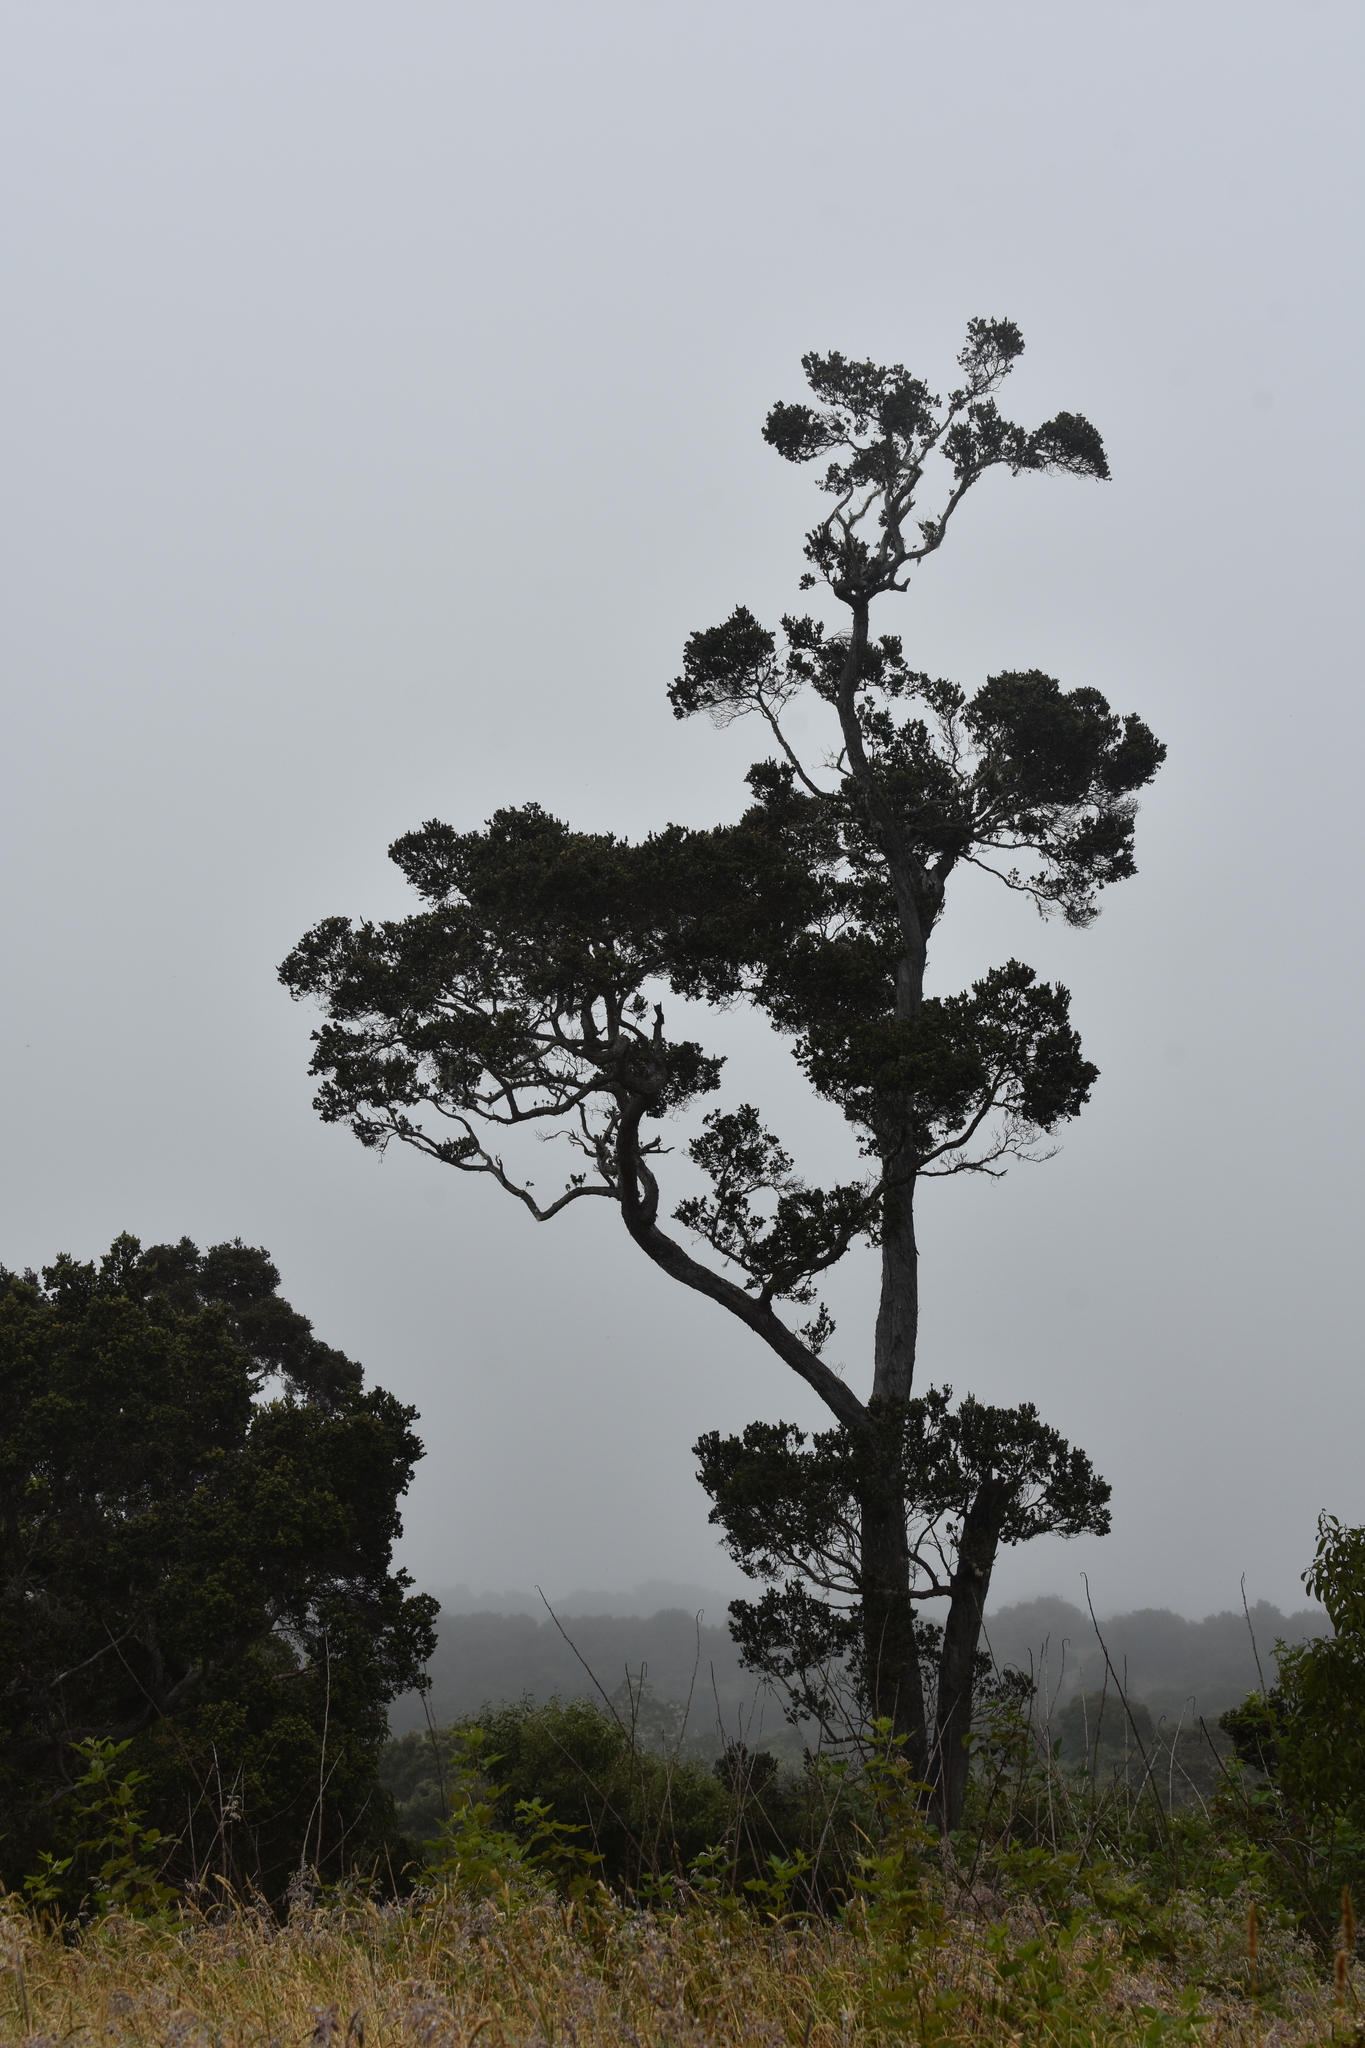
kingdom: Plantae
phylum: Tracheophyta
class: Magnoliopsida
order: Myrtales
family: Myrtaceae
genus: Metrosideros
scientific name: Metrosideros polymorpha
